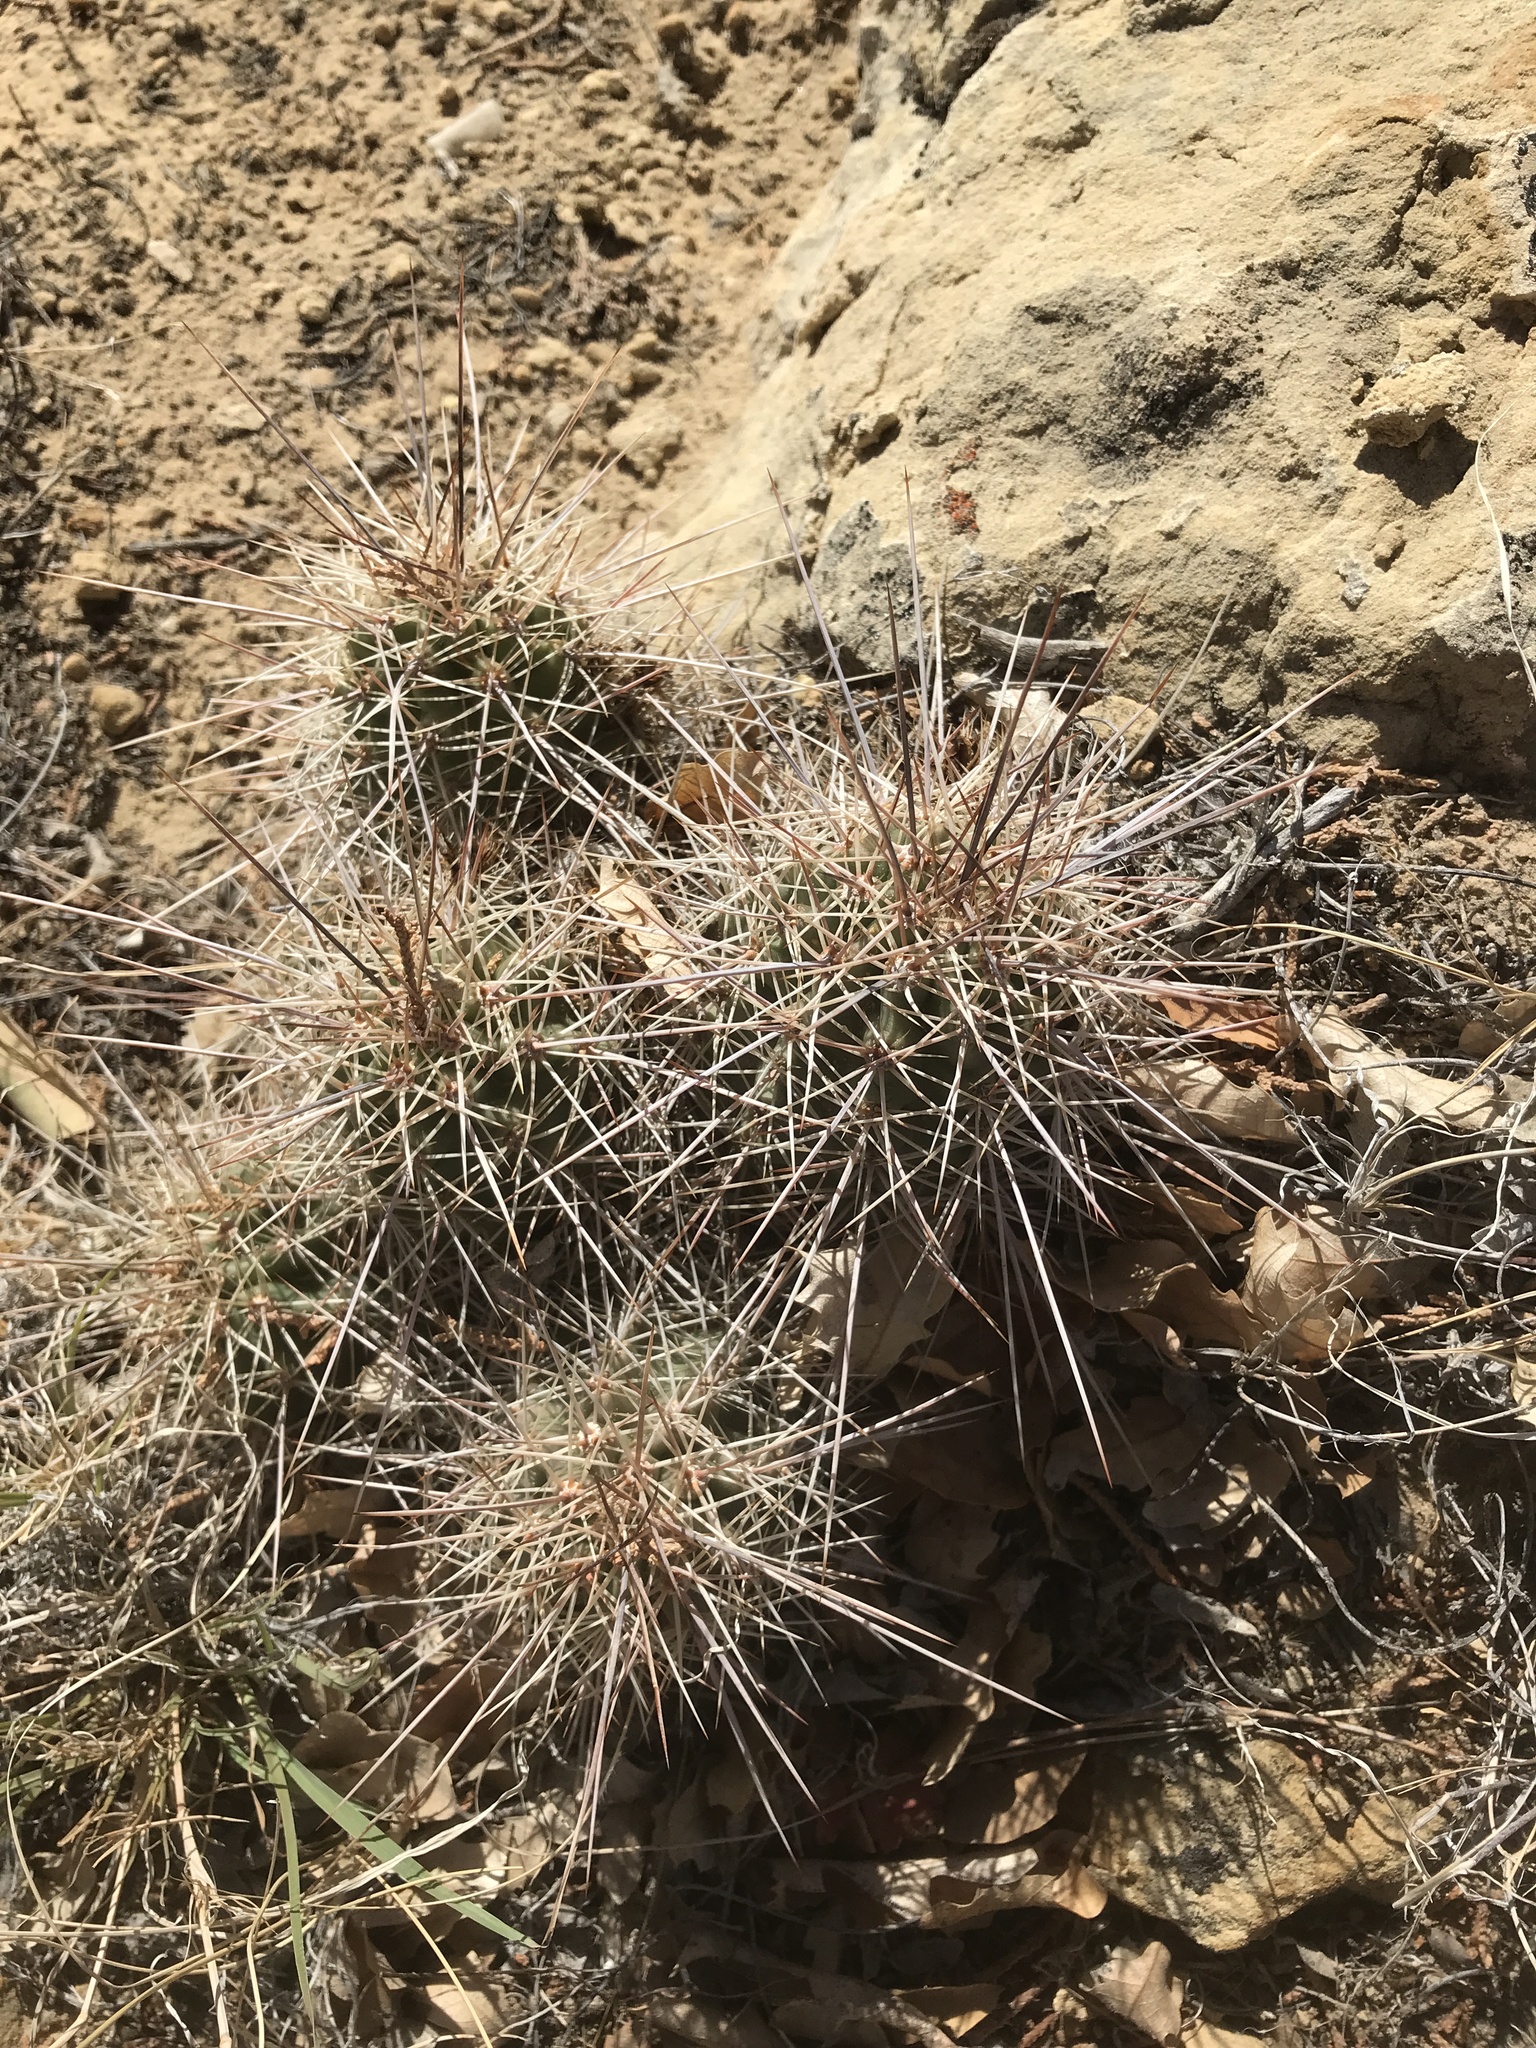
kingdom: Plantae
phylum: Tracheophyta
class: Magnoliopsida
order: Caryophyllales
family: Cactaceae
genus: Echinocereus
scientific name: Echinocereus coccineus
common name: Scarlet hedgehog cactus
